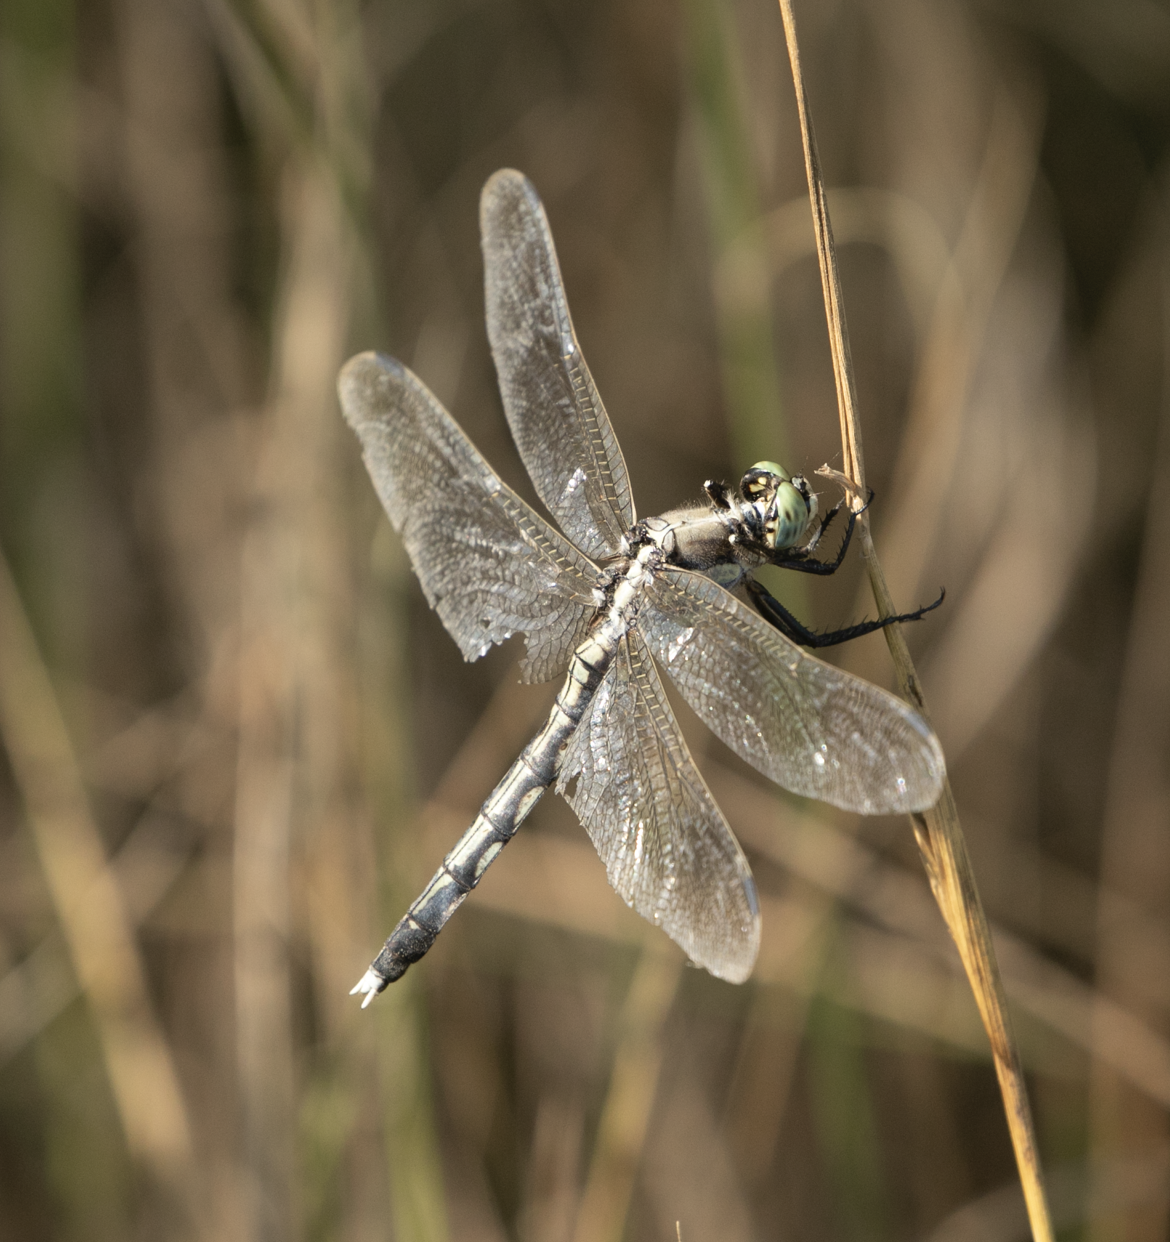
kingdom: Animalia
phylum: Arthropoda
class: Insecta
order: Odonata
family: Libellulidae
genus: Orthetrum
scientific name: Orthetrum albistylum
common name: White-tailed skimmer
